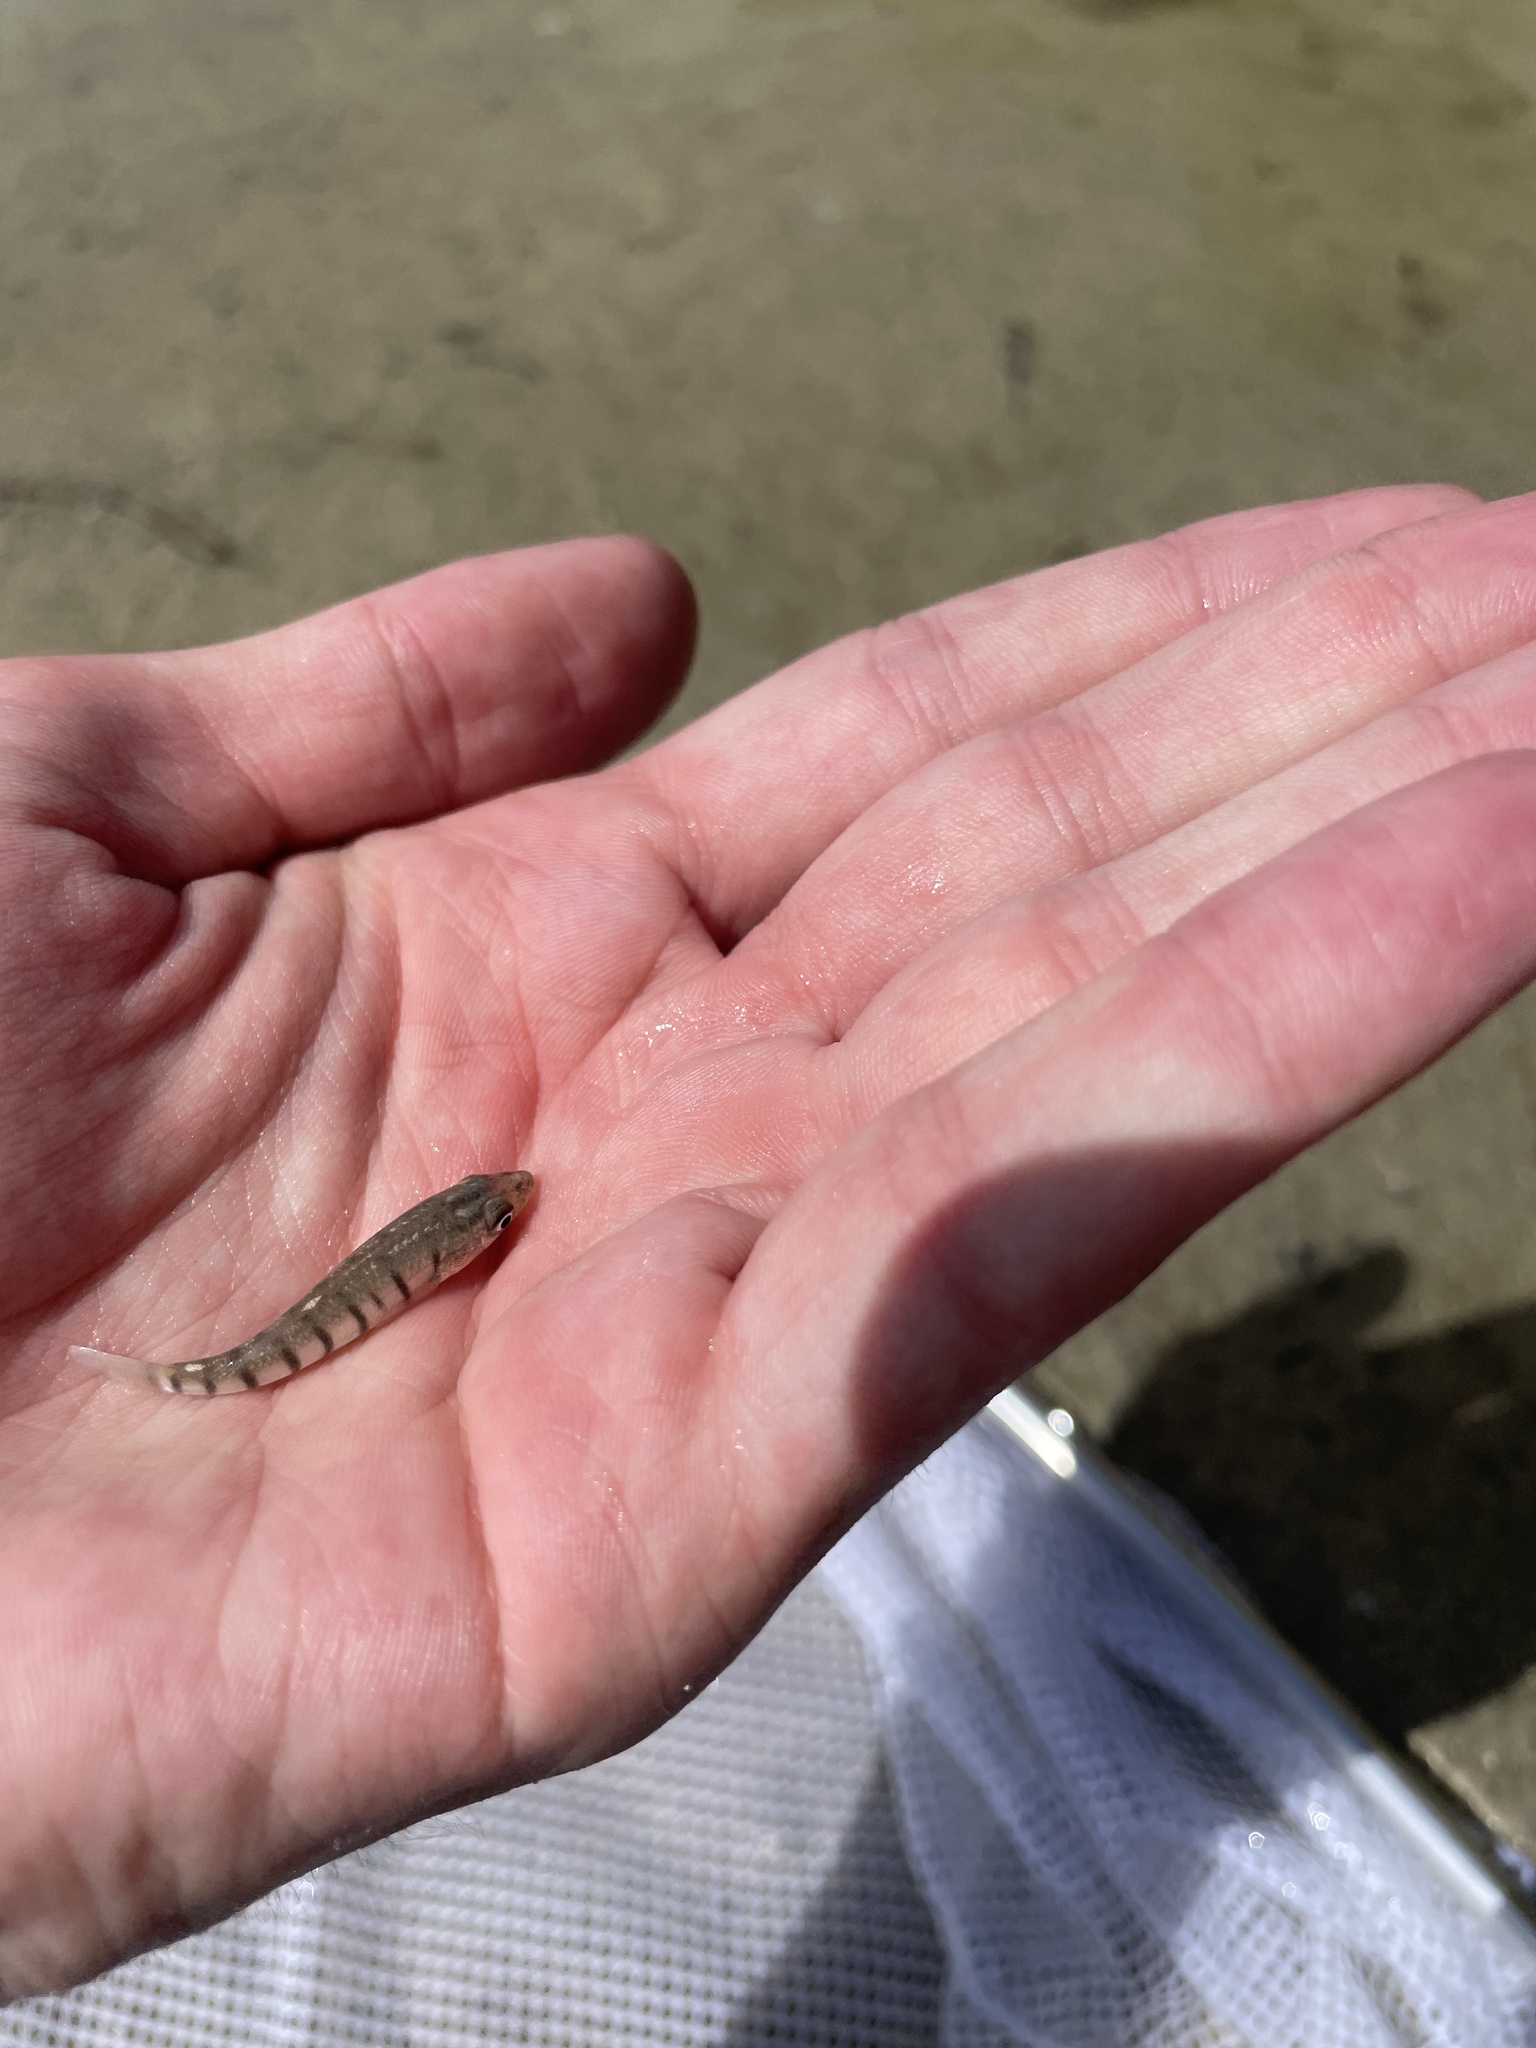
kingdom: Animalia
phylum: Chordata
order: Cyprinodontiformes
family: Fundulidae
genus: Fundulus
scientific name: Fundulus similis
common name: Longnose killifish
